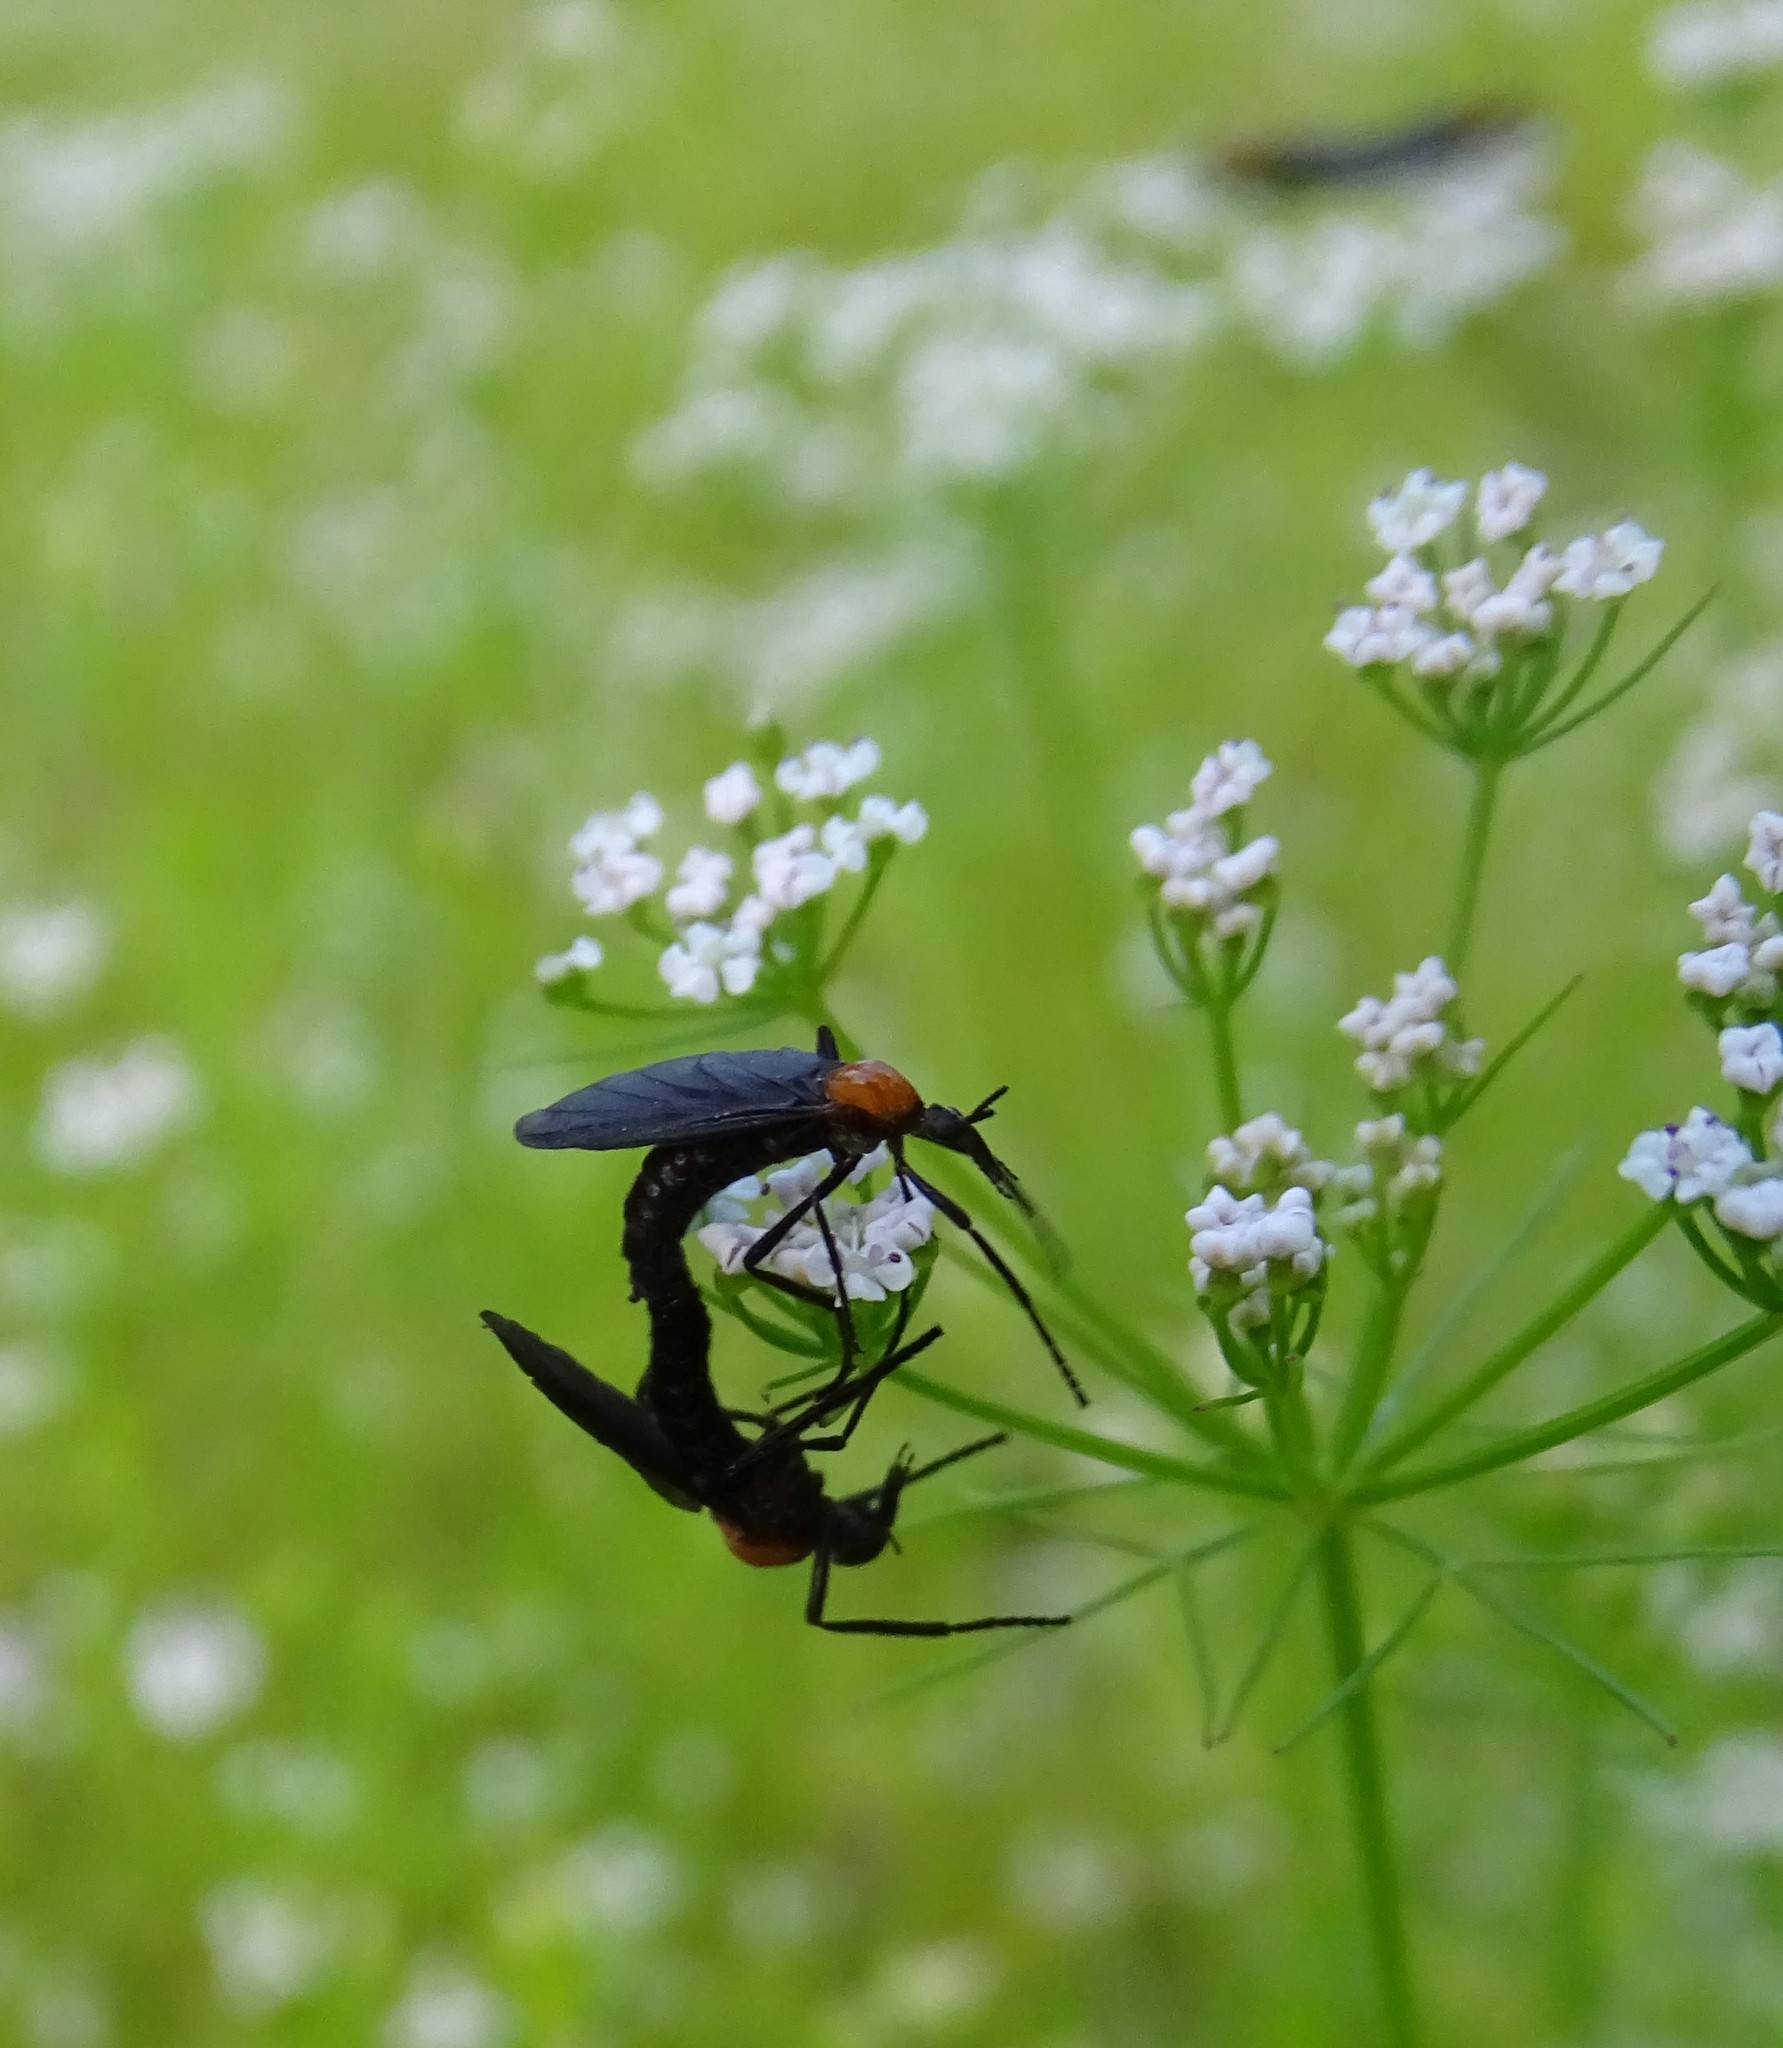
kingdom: Animalia
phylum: Arthropoda
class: Insecta
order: Diptera
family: Bibionidae
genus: Plecia
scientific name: Plecia nearctica
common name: March fly
